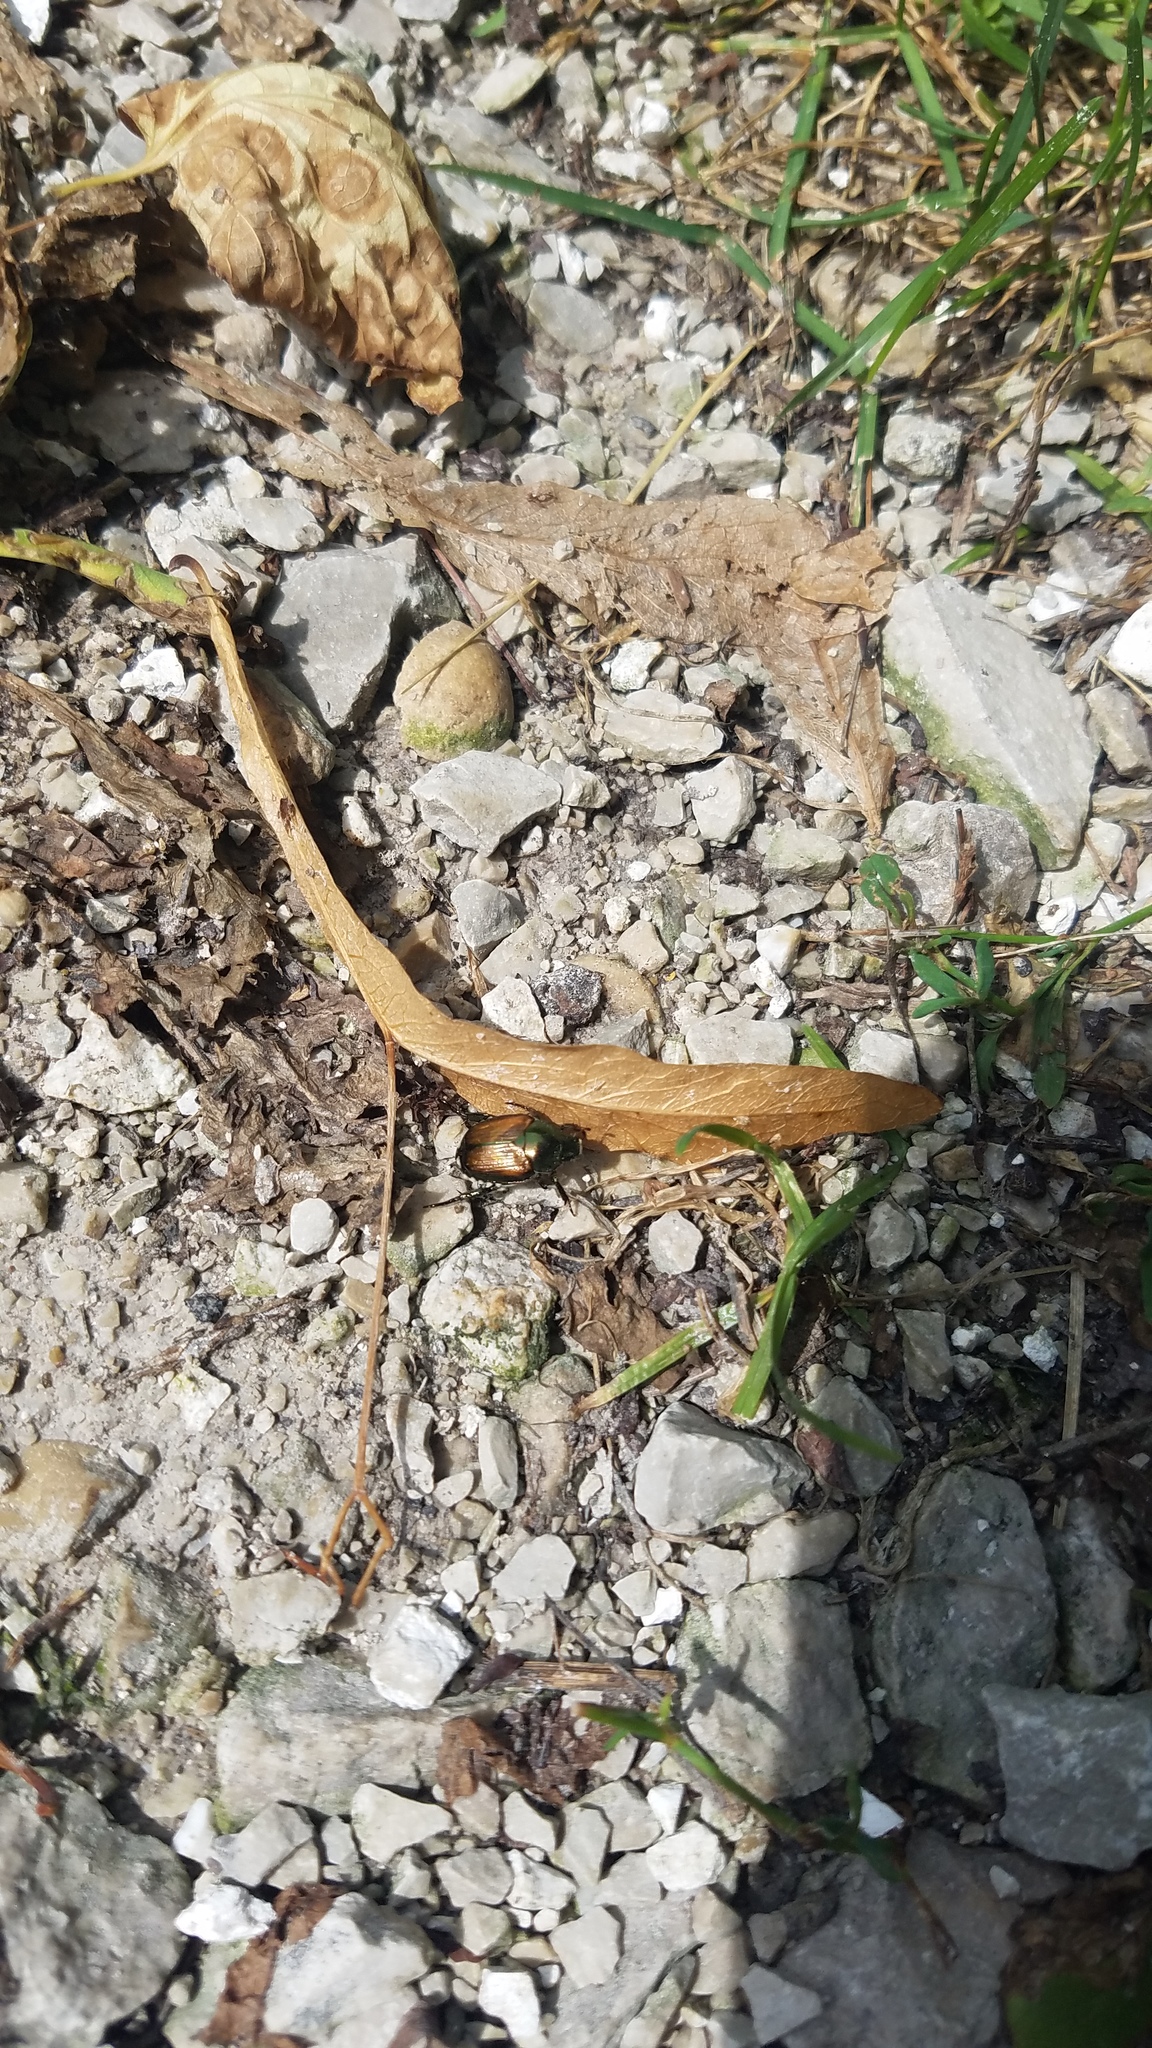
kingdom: Animalia
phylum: Arthropoda
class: Insecta
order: Coleoptera
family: Scarabaeidae
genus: Popillia
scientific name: Popillia japonica
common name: Japanese beetle
